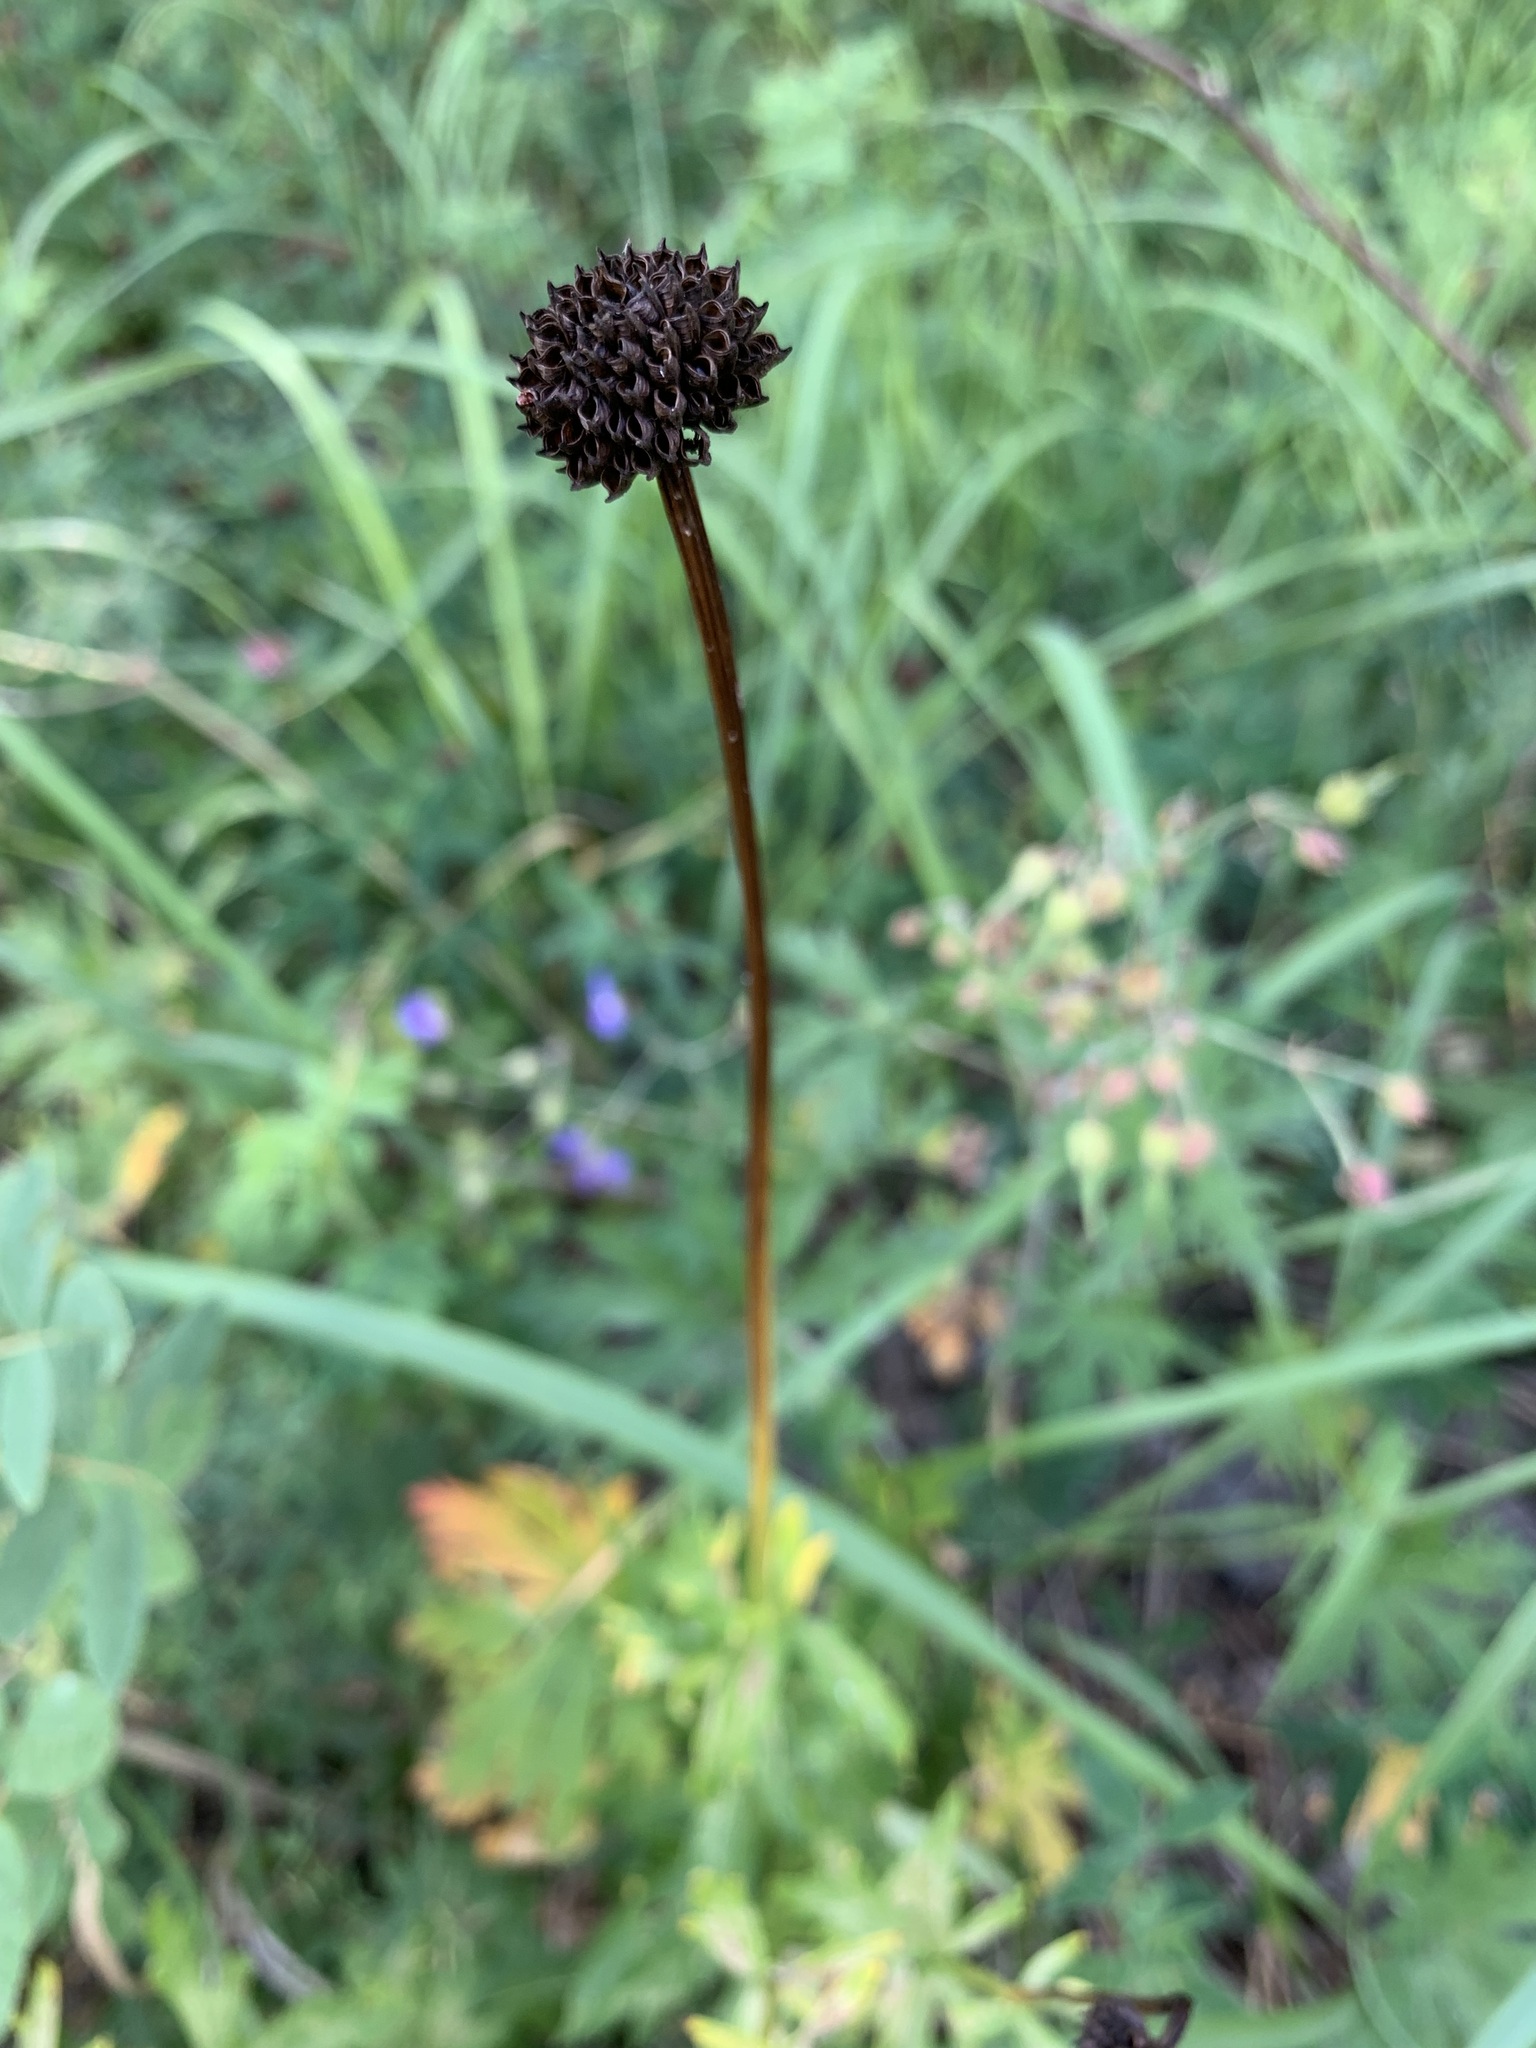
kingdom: Plantae
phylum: Tracheophyta
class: Magnoliopsida
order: Ranunculales
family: Ranunculaceae
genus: Trollius
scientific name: Trollius europaeus
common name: European globeflower
